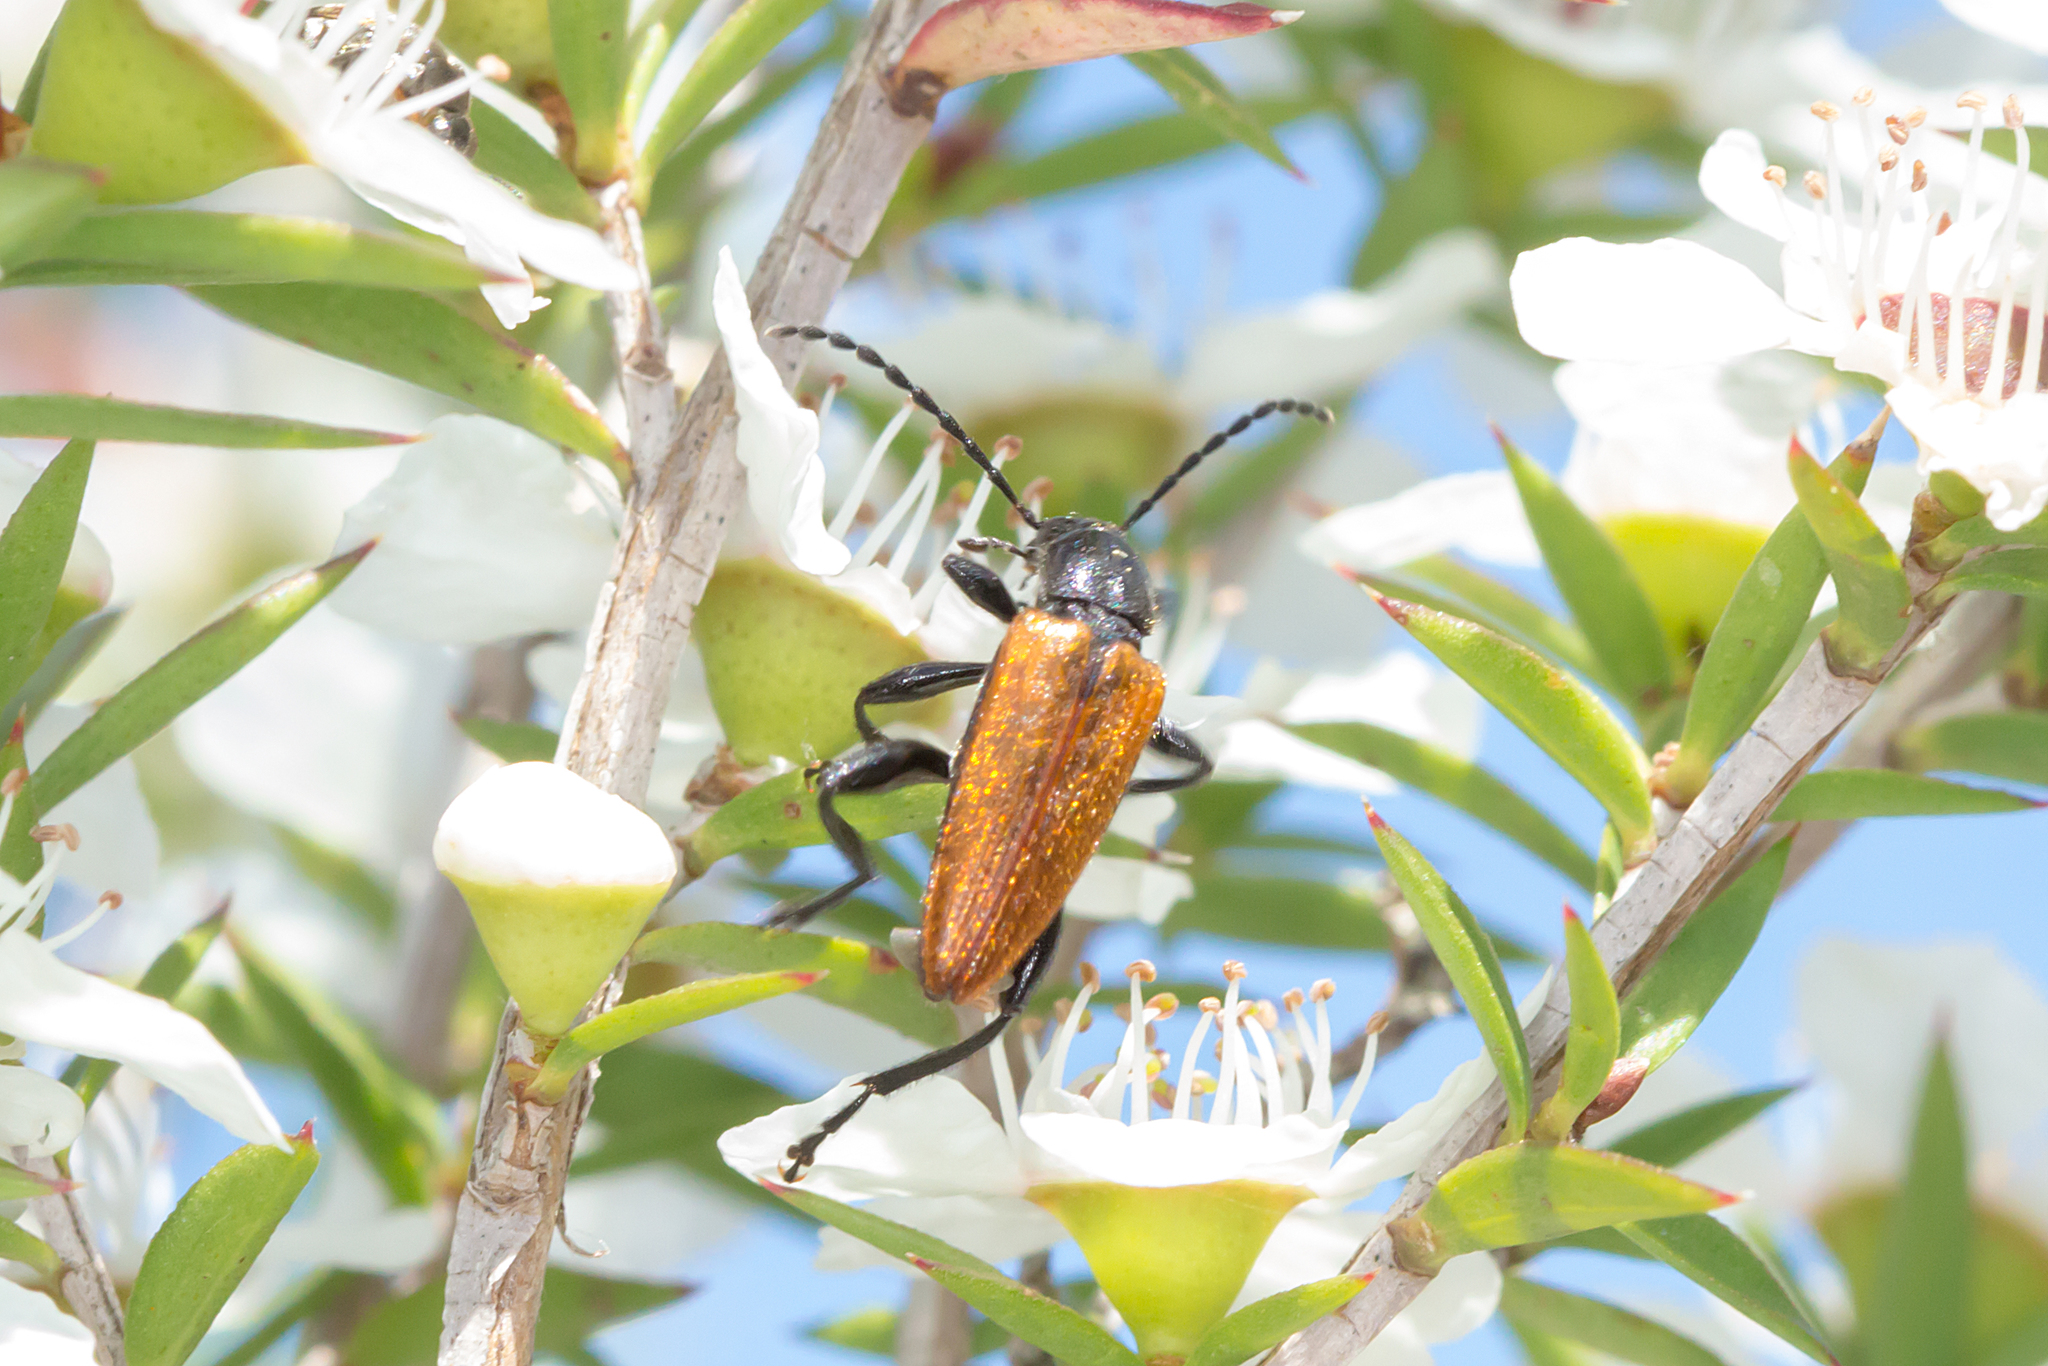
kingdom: Animalia
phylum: Arthropoda
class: Insecta
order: Coleoptera
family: Tenebrionidae
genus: Lepturidea
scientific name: Lepturidea deplanchei
